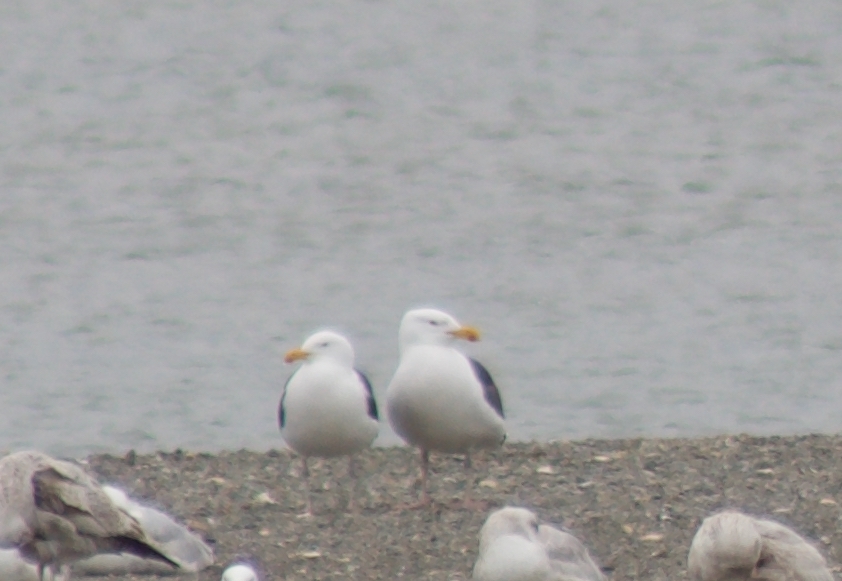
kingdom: Animalia
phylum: Chordata
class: Aves
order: Charadriiformes
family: Laridae
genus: Larus
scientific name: Larus marinus
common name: Great black-backed gull
